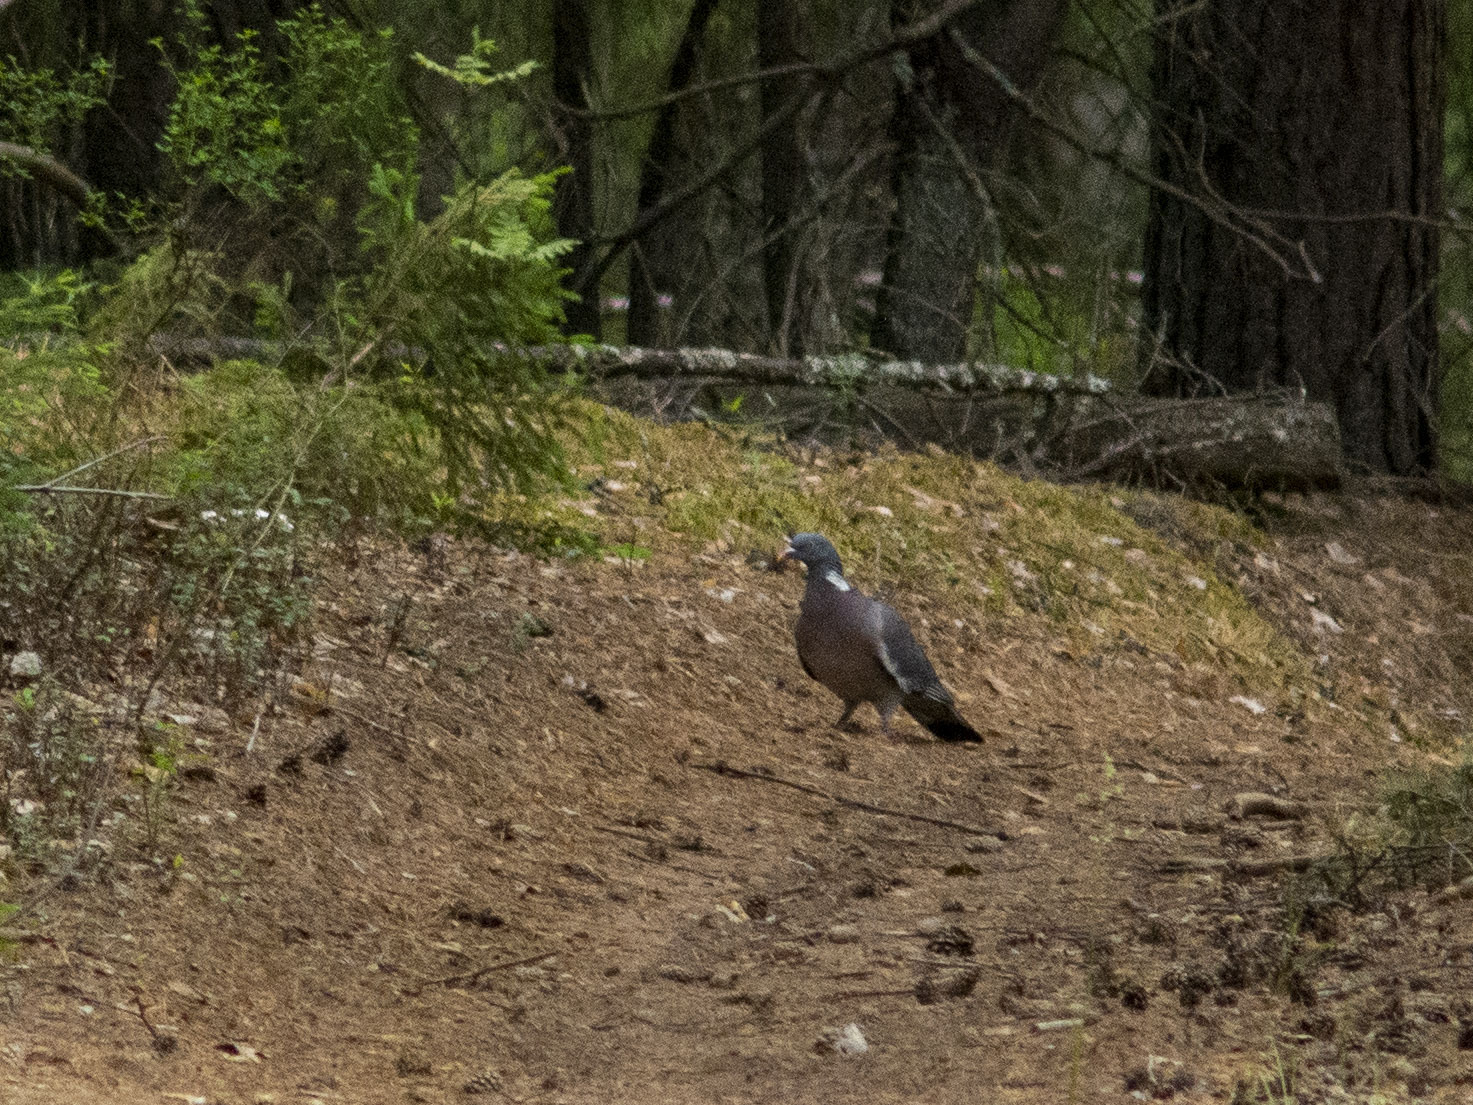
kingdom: Animalia
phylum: Chordata
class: Aves
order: Columbiformes
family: Columbidae
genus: Columba
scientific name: Columba palumbus
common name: Common wood pigeon
